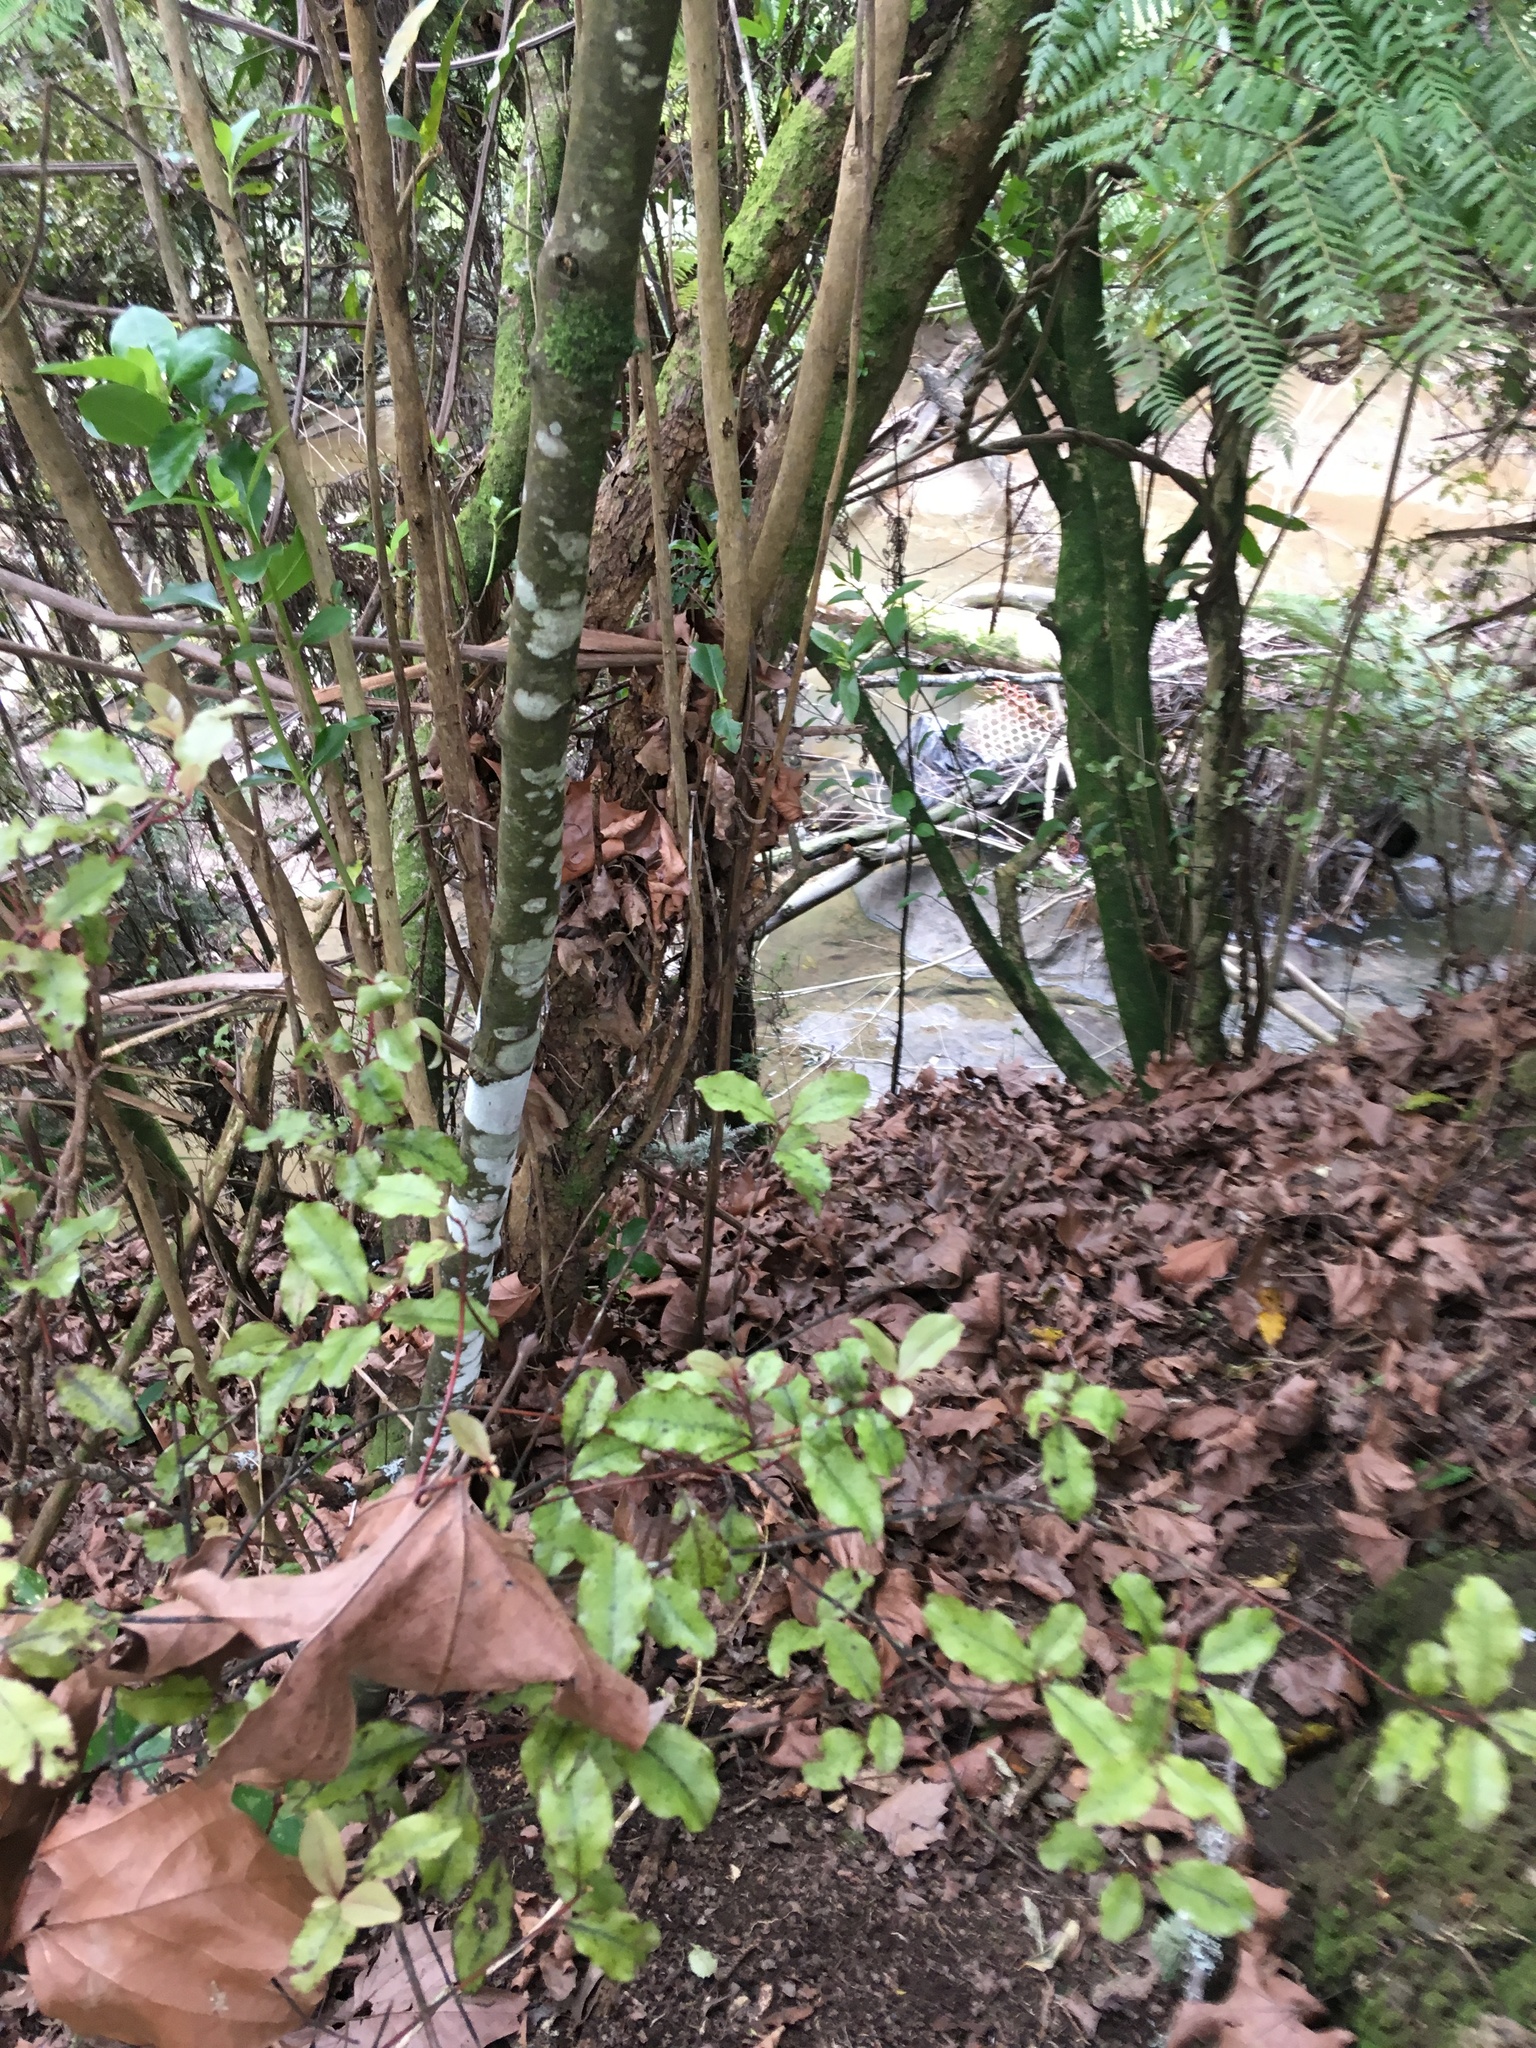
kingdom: Plantae
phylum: Tracheophyta
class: Magnoliopsida
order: Ericales
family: Primulaceae
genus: Myrsine
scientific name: Myrsine australis
